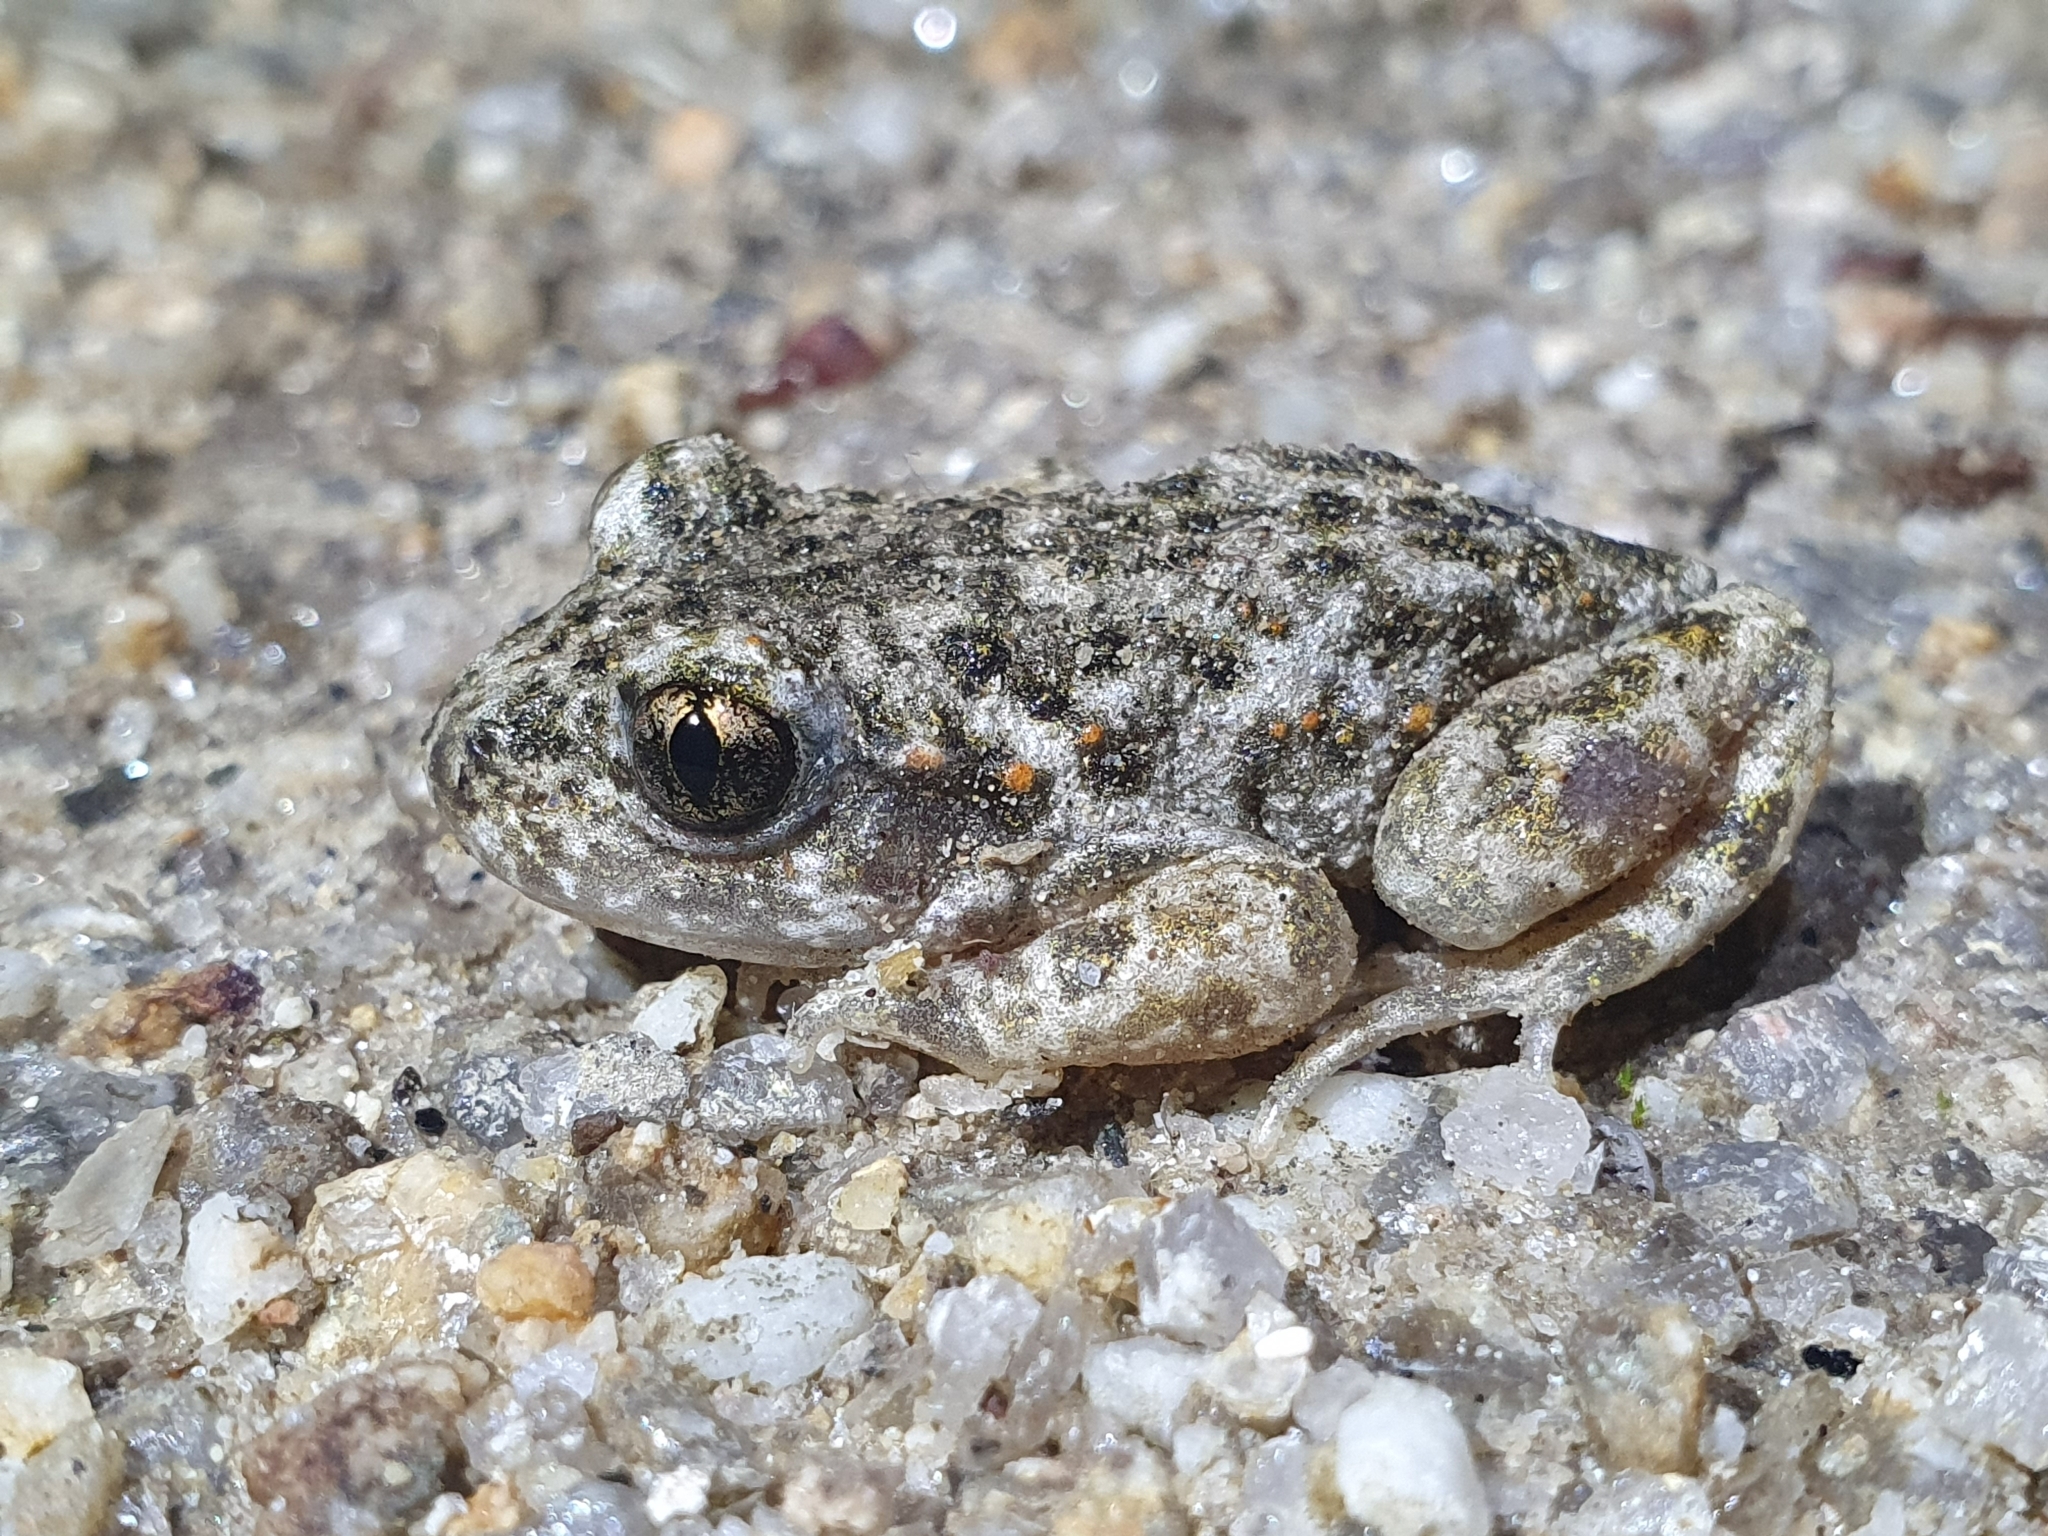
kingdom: Animalia
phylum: Chordata
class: Amphibia
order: Anura
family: Alytidae
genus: Alytes
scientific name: Alytes obstetricans
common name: Midwife toad
